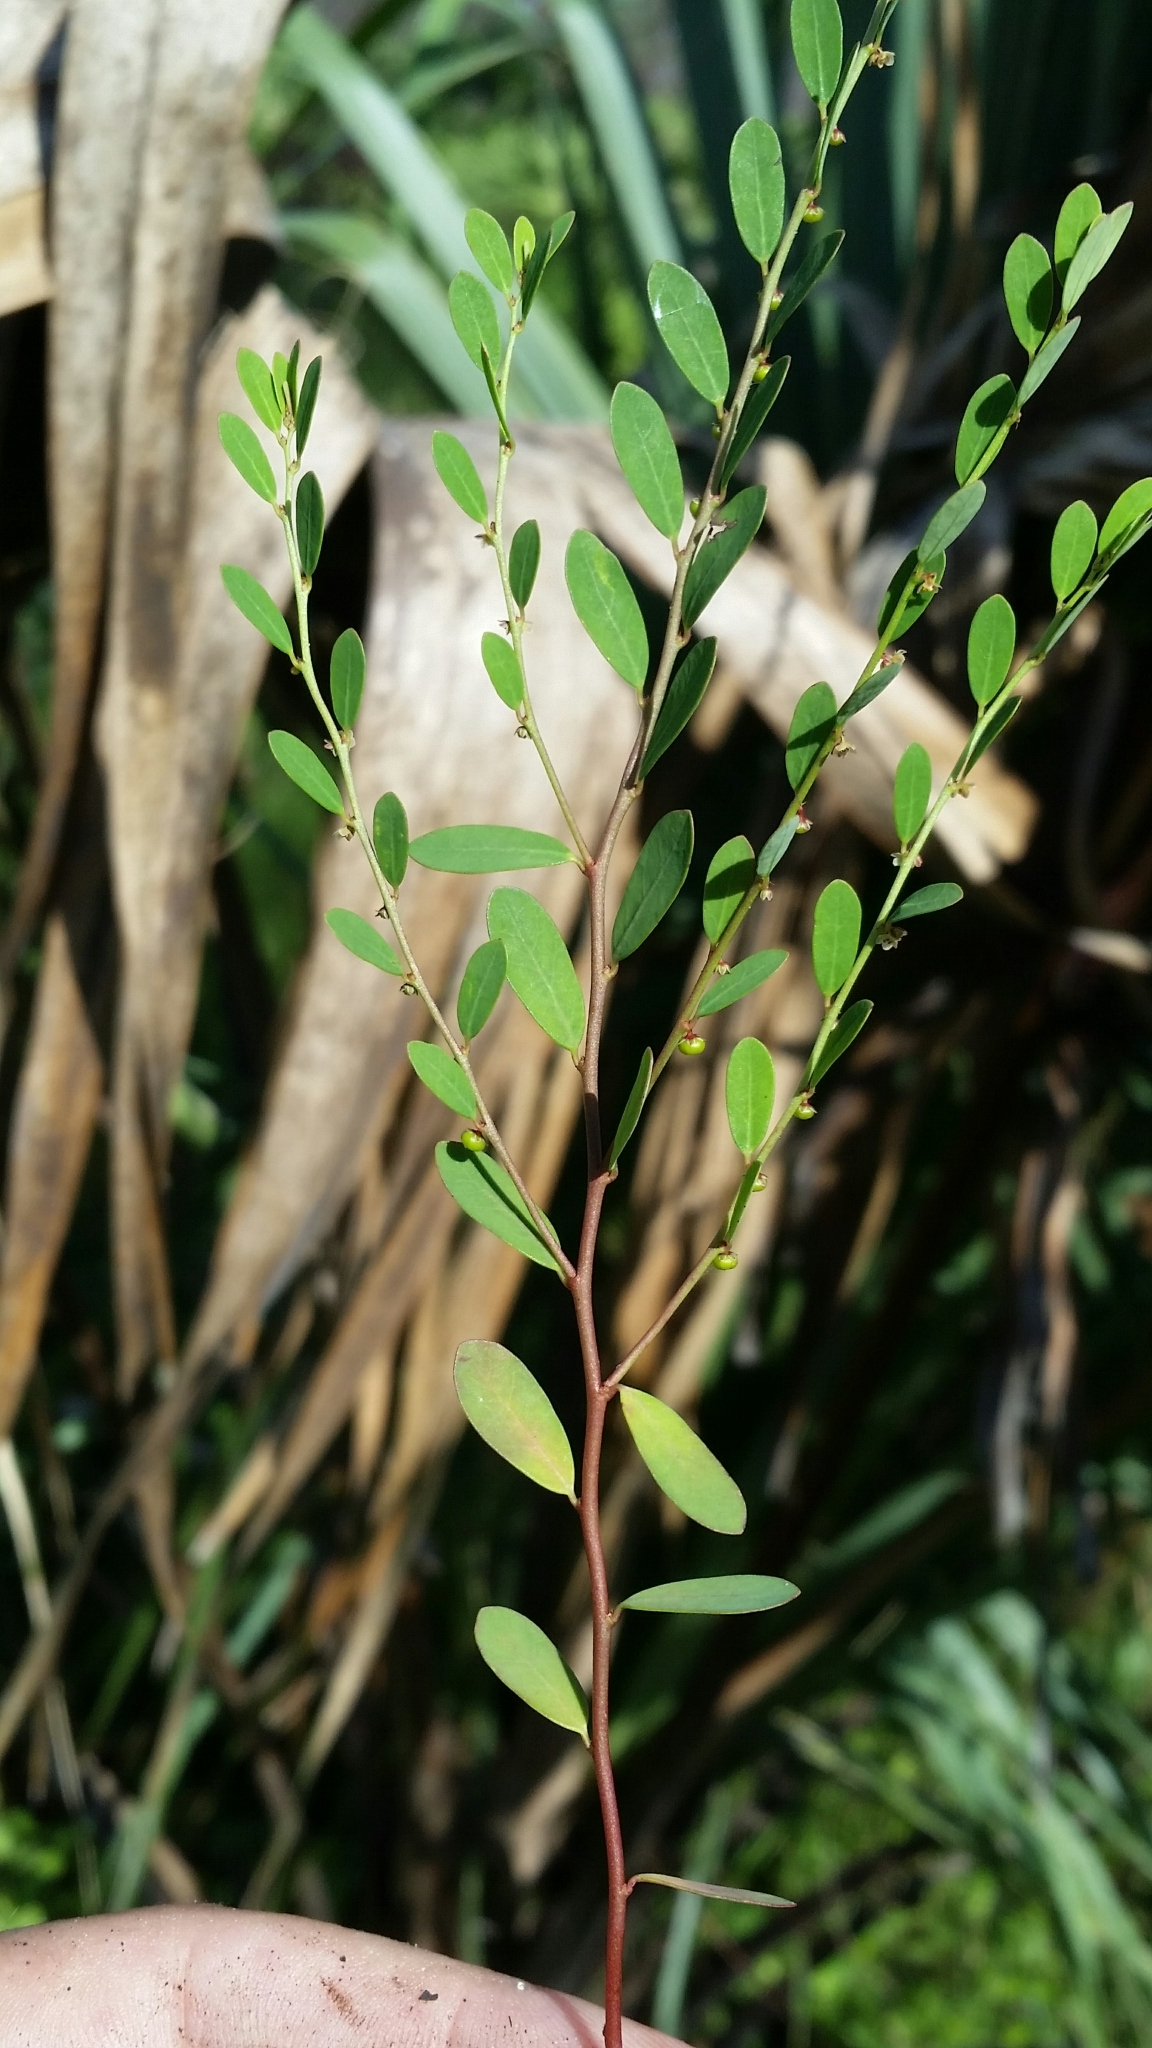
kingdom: Plantae
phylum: Tracheophyta
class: Magnoliopsida
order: Malpighiales
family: Phyllanthaceae
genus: Phyllanthus
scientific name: Phyllanthus caroliniensis
